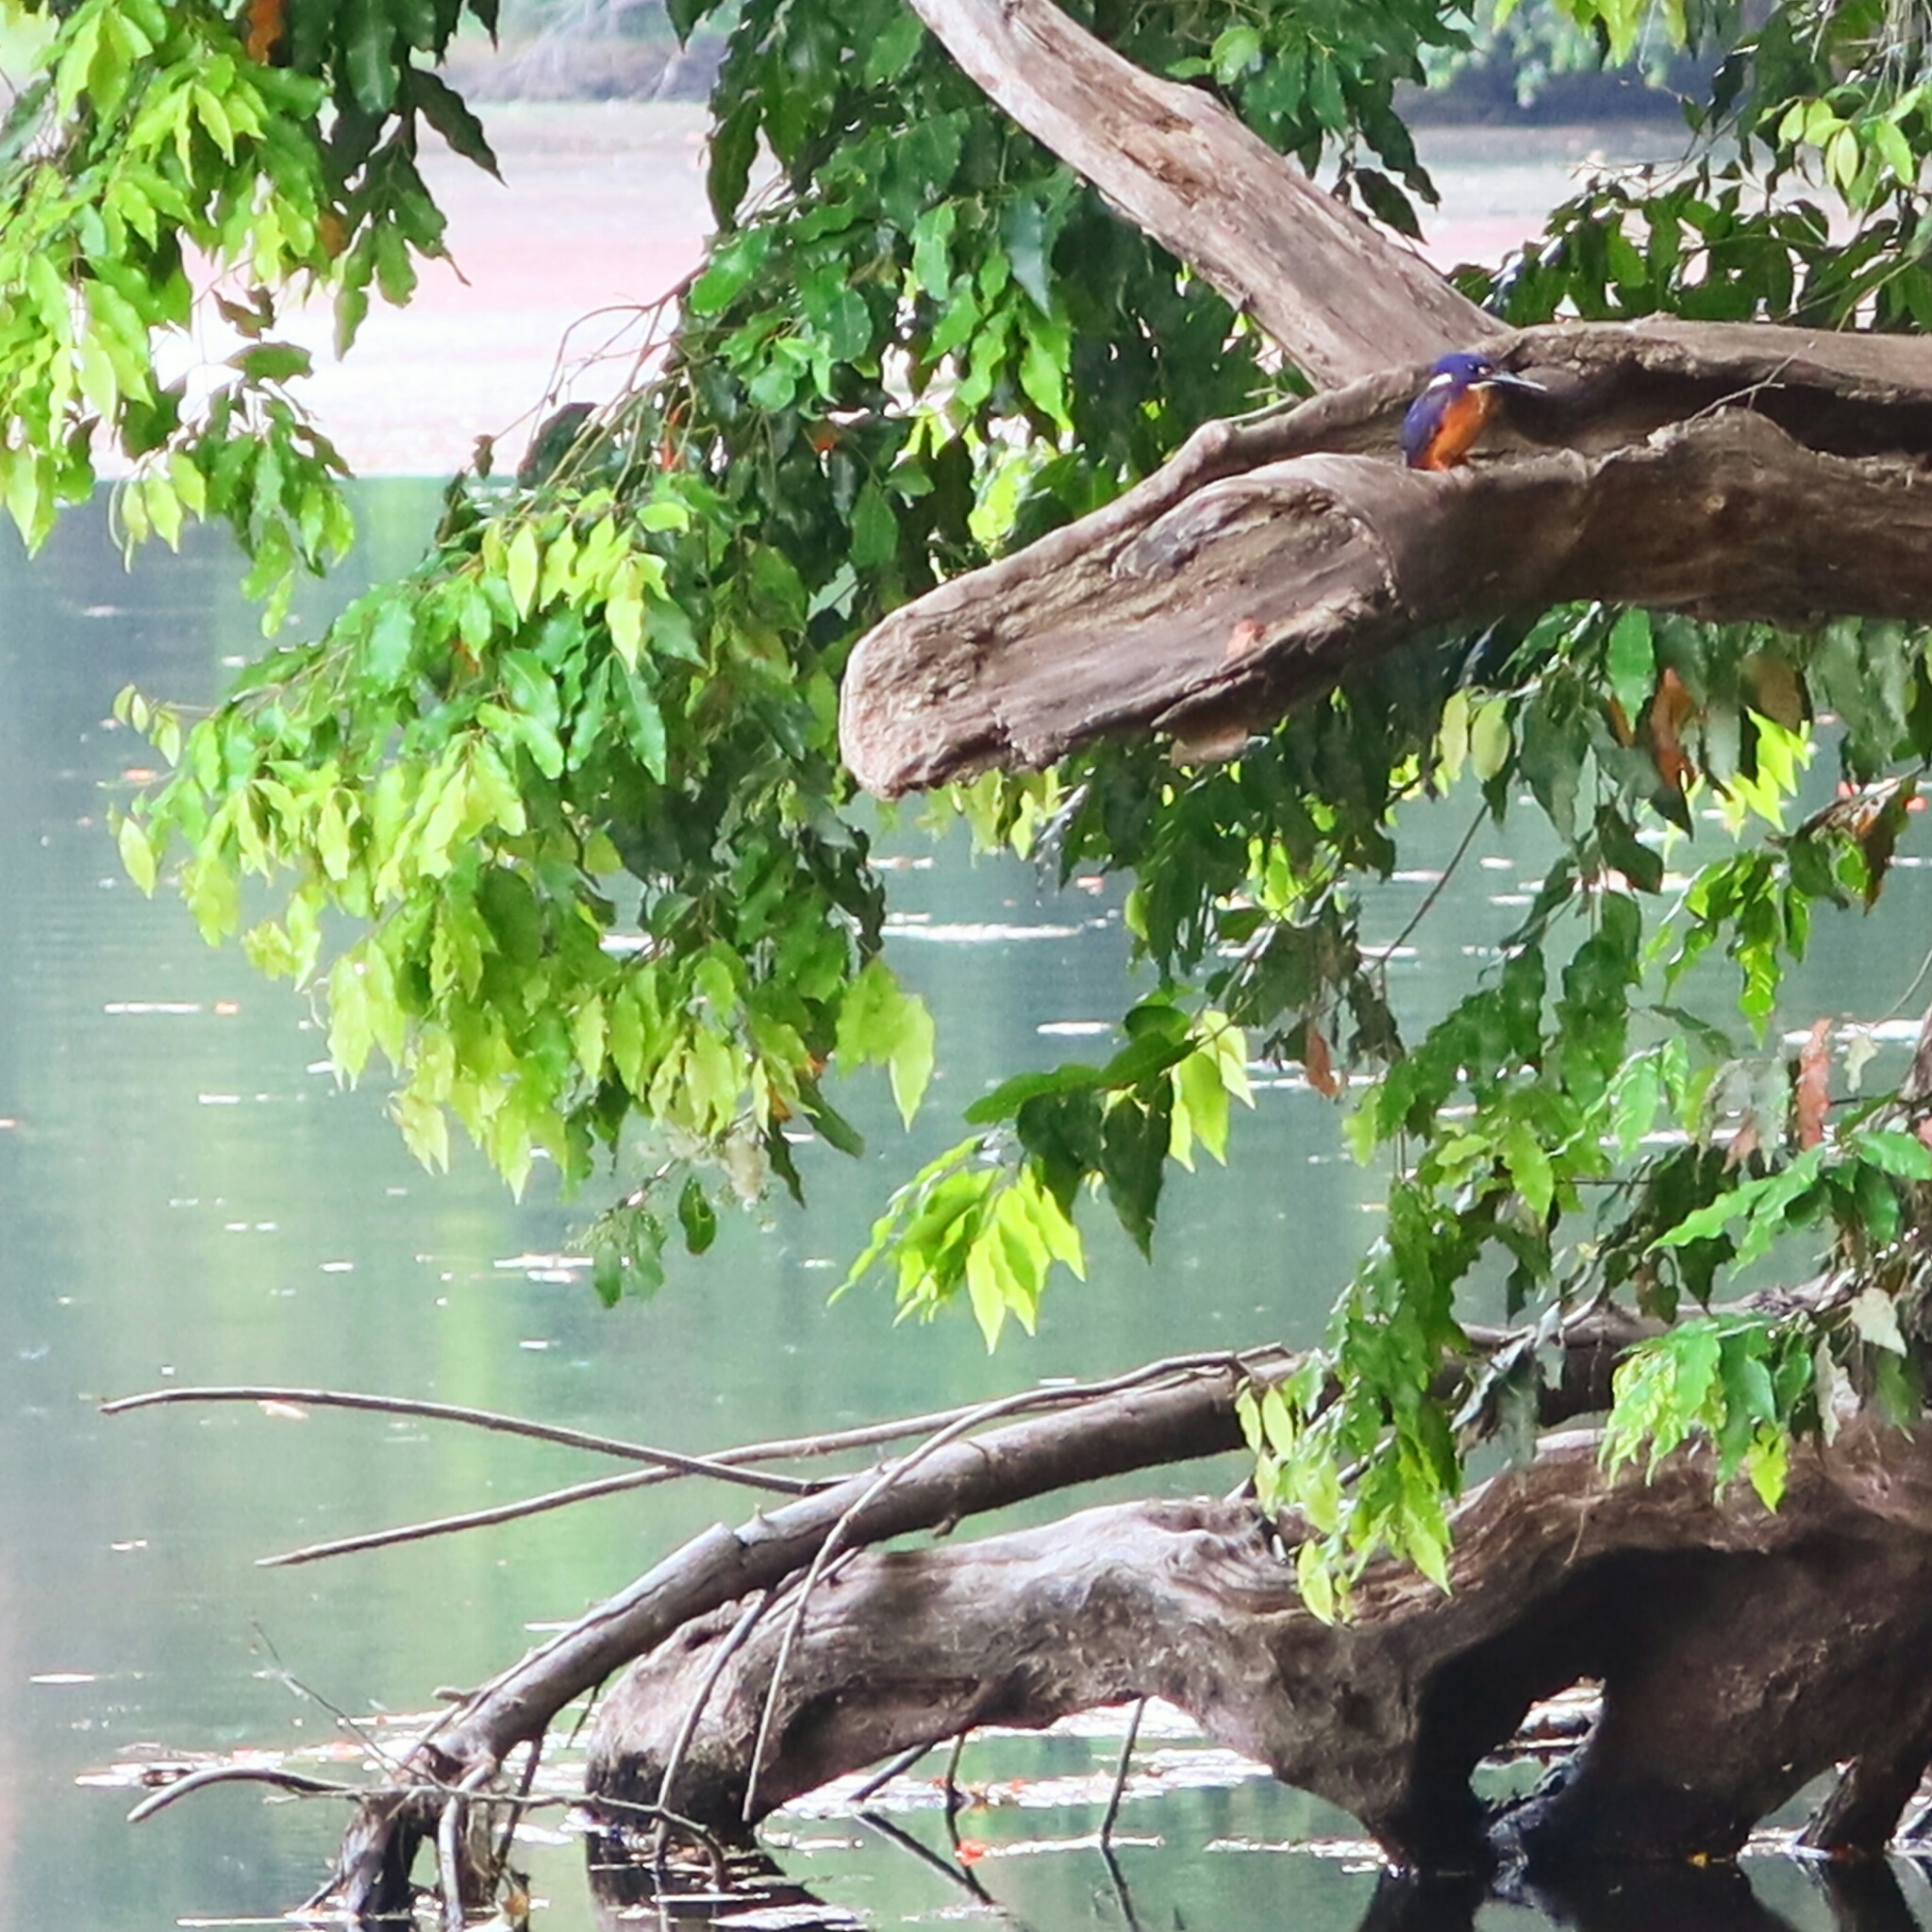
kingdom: Animalia
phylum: Chordata
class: Aves
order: Coraciiformes
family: Alcedinidae
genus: Ceyx
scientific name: Ceyx azureus
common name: Azure kingfisher
